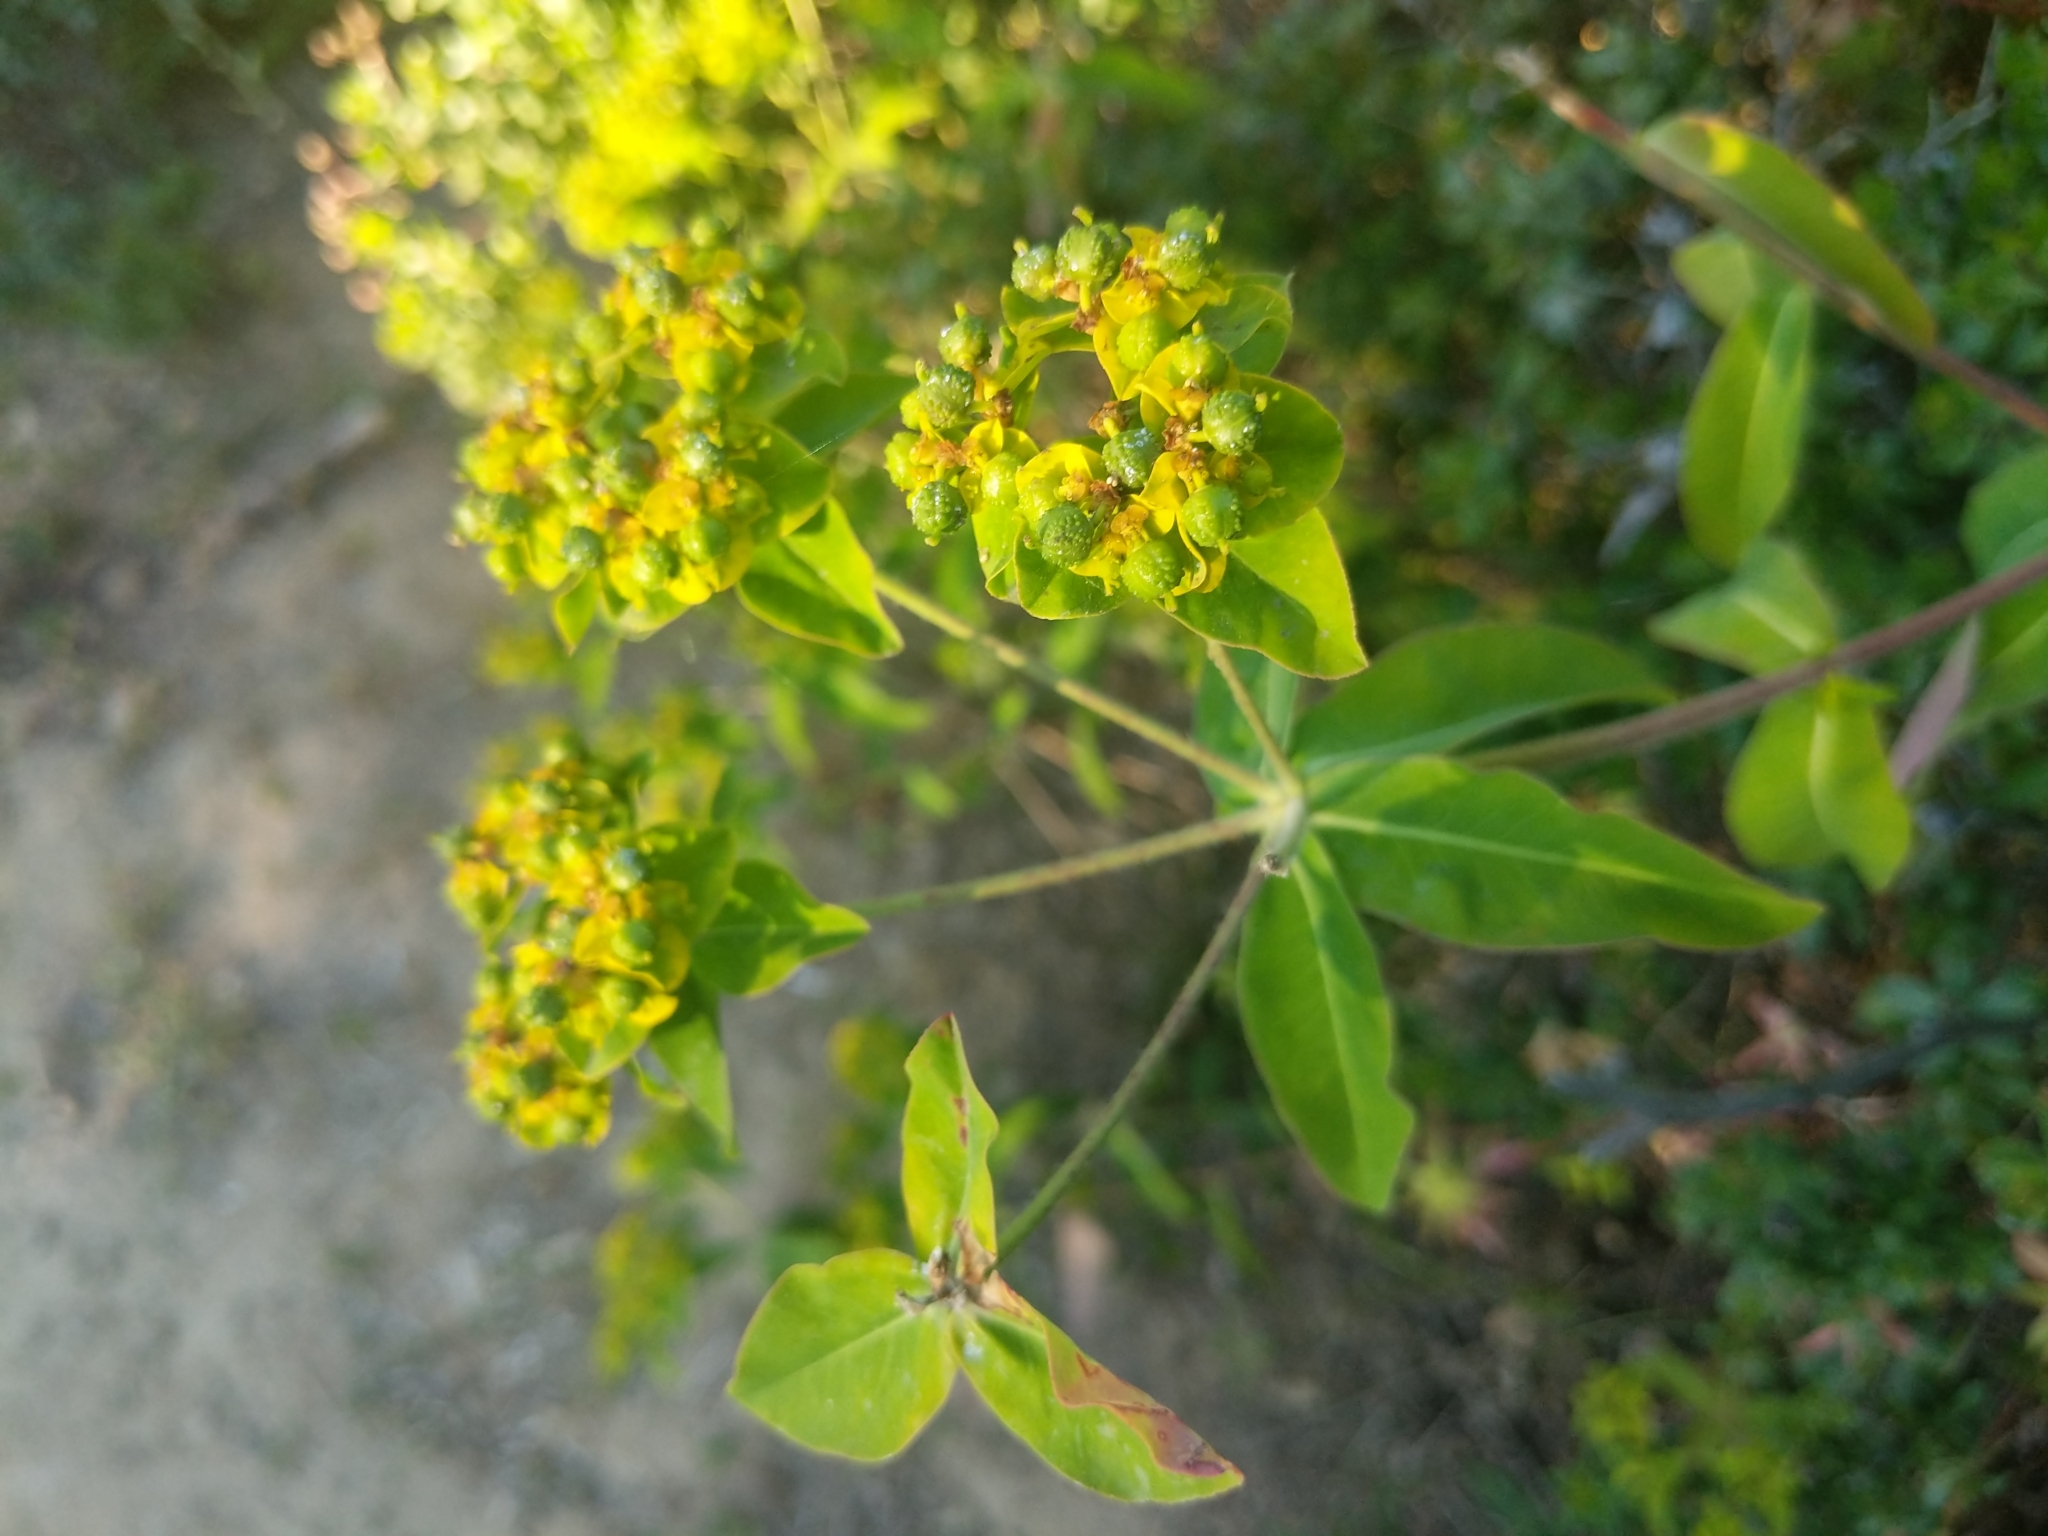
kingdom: Plantae
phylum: Tracheophyta
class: Magnoliopsida
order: Malpighiales
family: Euphorbiaceae
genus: Euphorbia
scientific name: Euphorbia oblongata
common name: Balkan spurge
